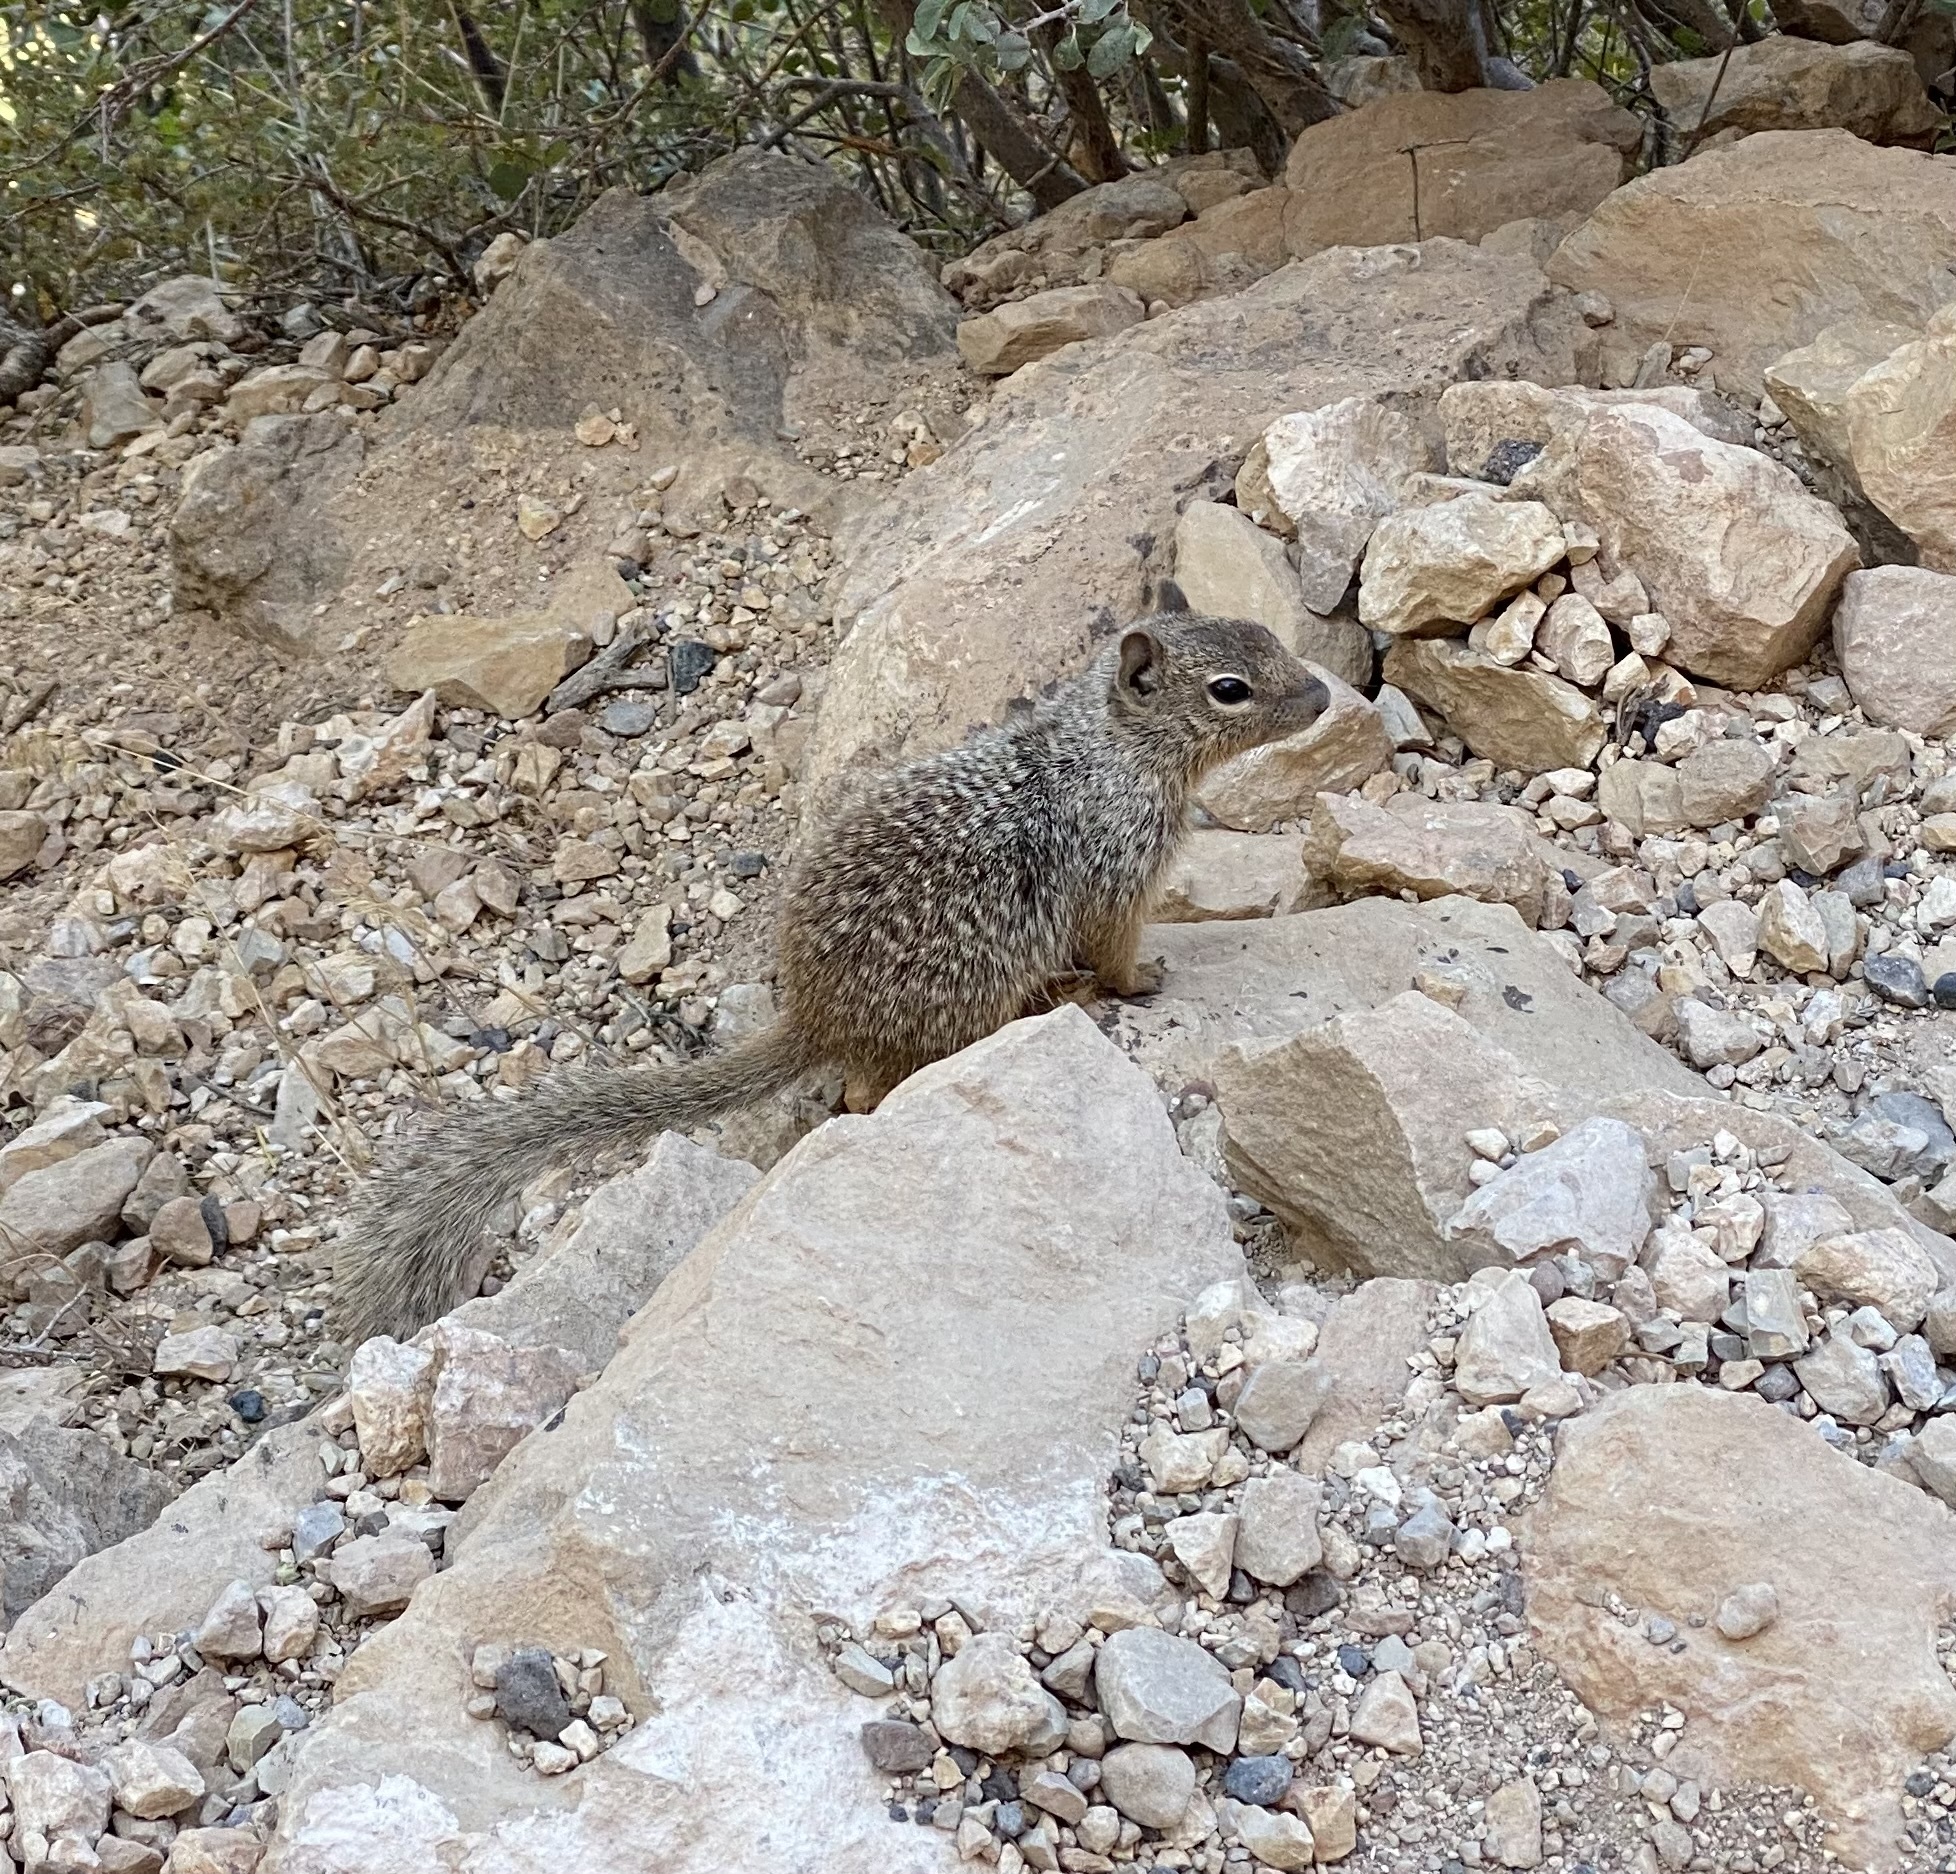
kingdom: Animalia
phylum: Chordata
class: Mammalia
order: Rodentia
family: Sciuridae
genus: Otospermophilus
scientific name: Otospermophilus variegatus
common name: Rock squirrel
